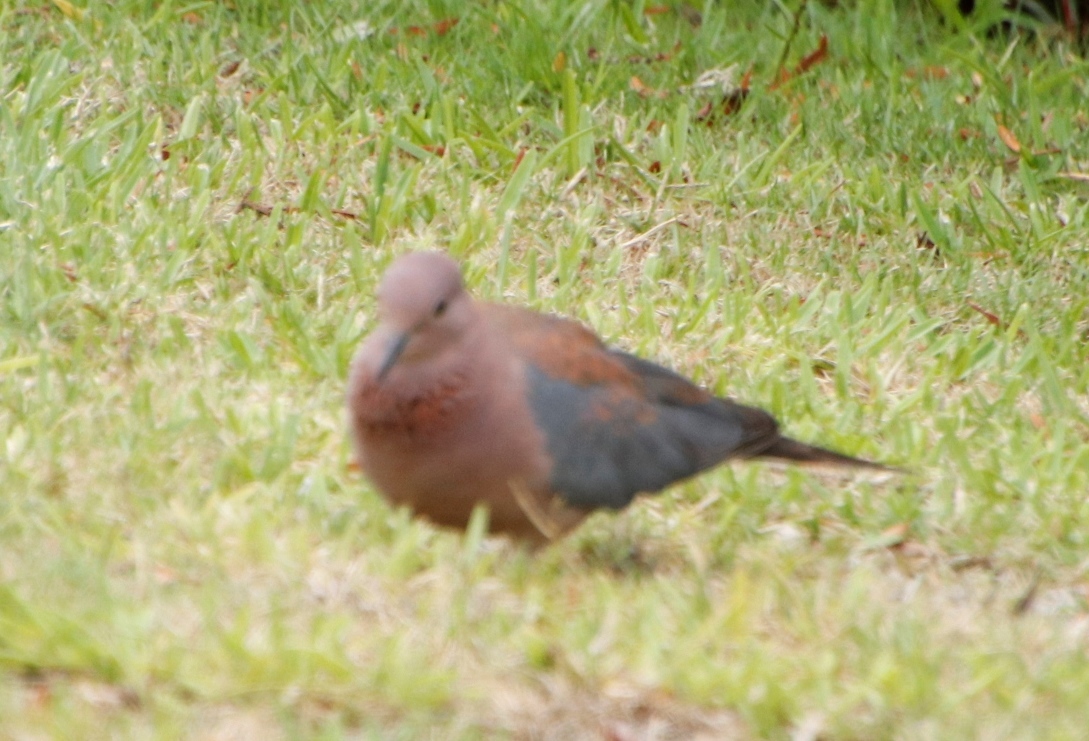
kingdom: Animalia
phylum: Chordata
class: Aves
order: Columbiformes
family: Columbidae
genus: Spilopelia
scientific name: Spilopelia senegalensis
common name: Laughing dove
